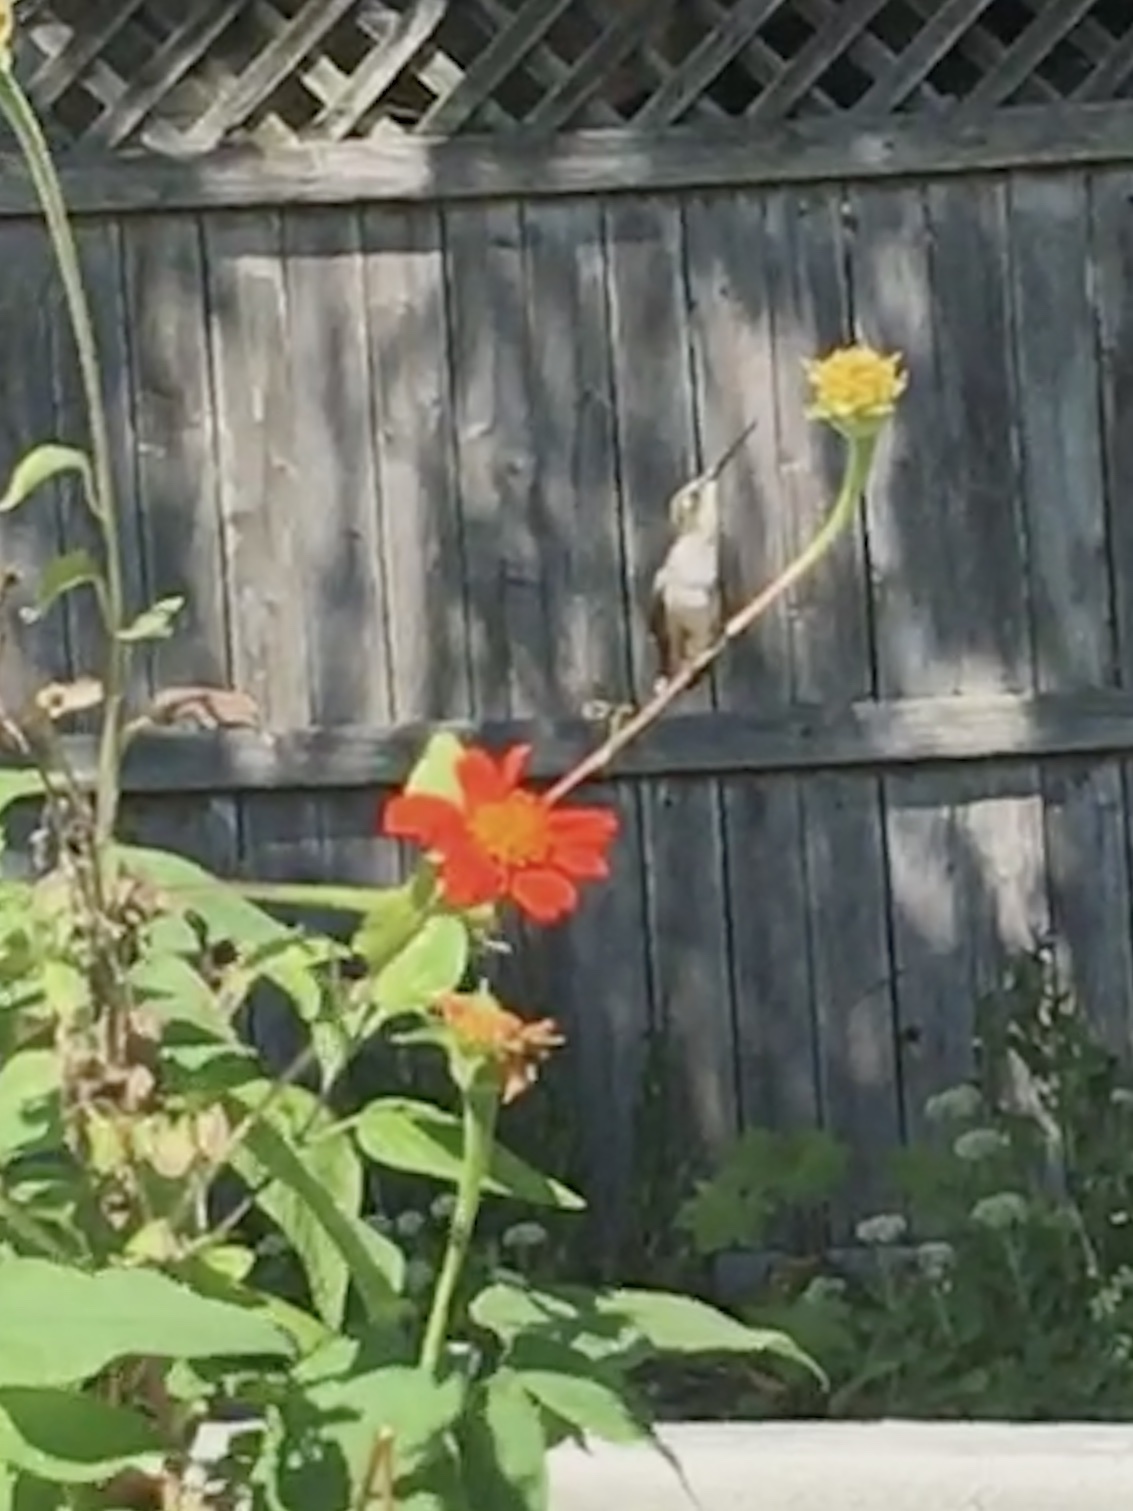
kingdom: Animalia
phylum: Chordata
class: Aves
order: Apodiformes
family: Trochilidae
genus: Archilochus
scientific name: Archilochus colubris
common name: Ruby-throated hummingbird
